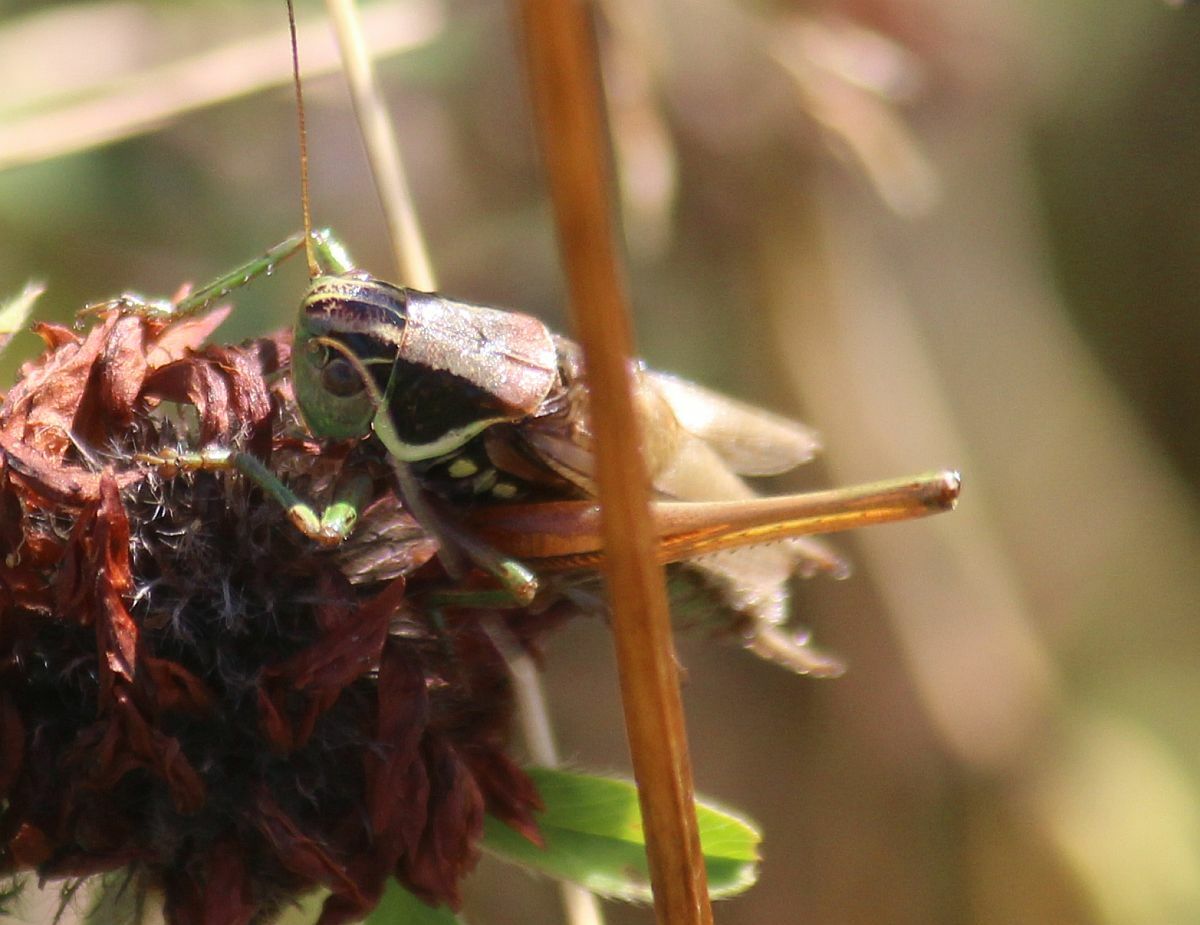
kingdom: Animalia
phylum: Arthropoda
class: Insecta
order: Orthoptera
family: Tettigoniidae
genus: Roeseliana
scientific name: Roeseliana roeselii
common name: Roesel's bush cricket
